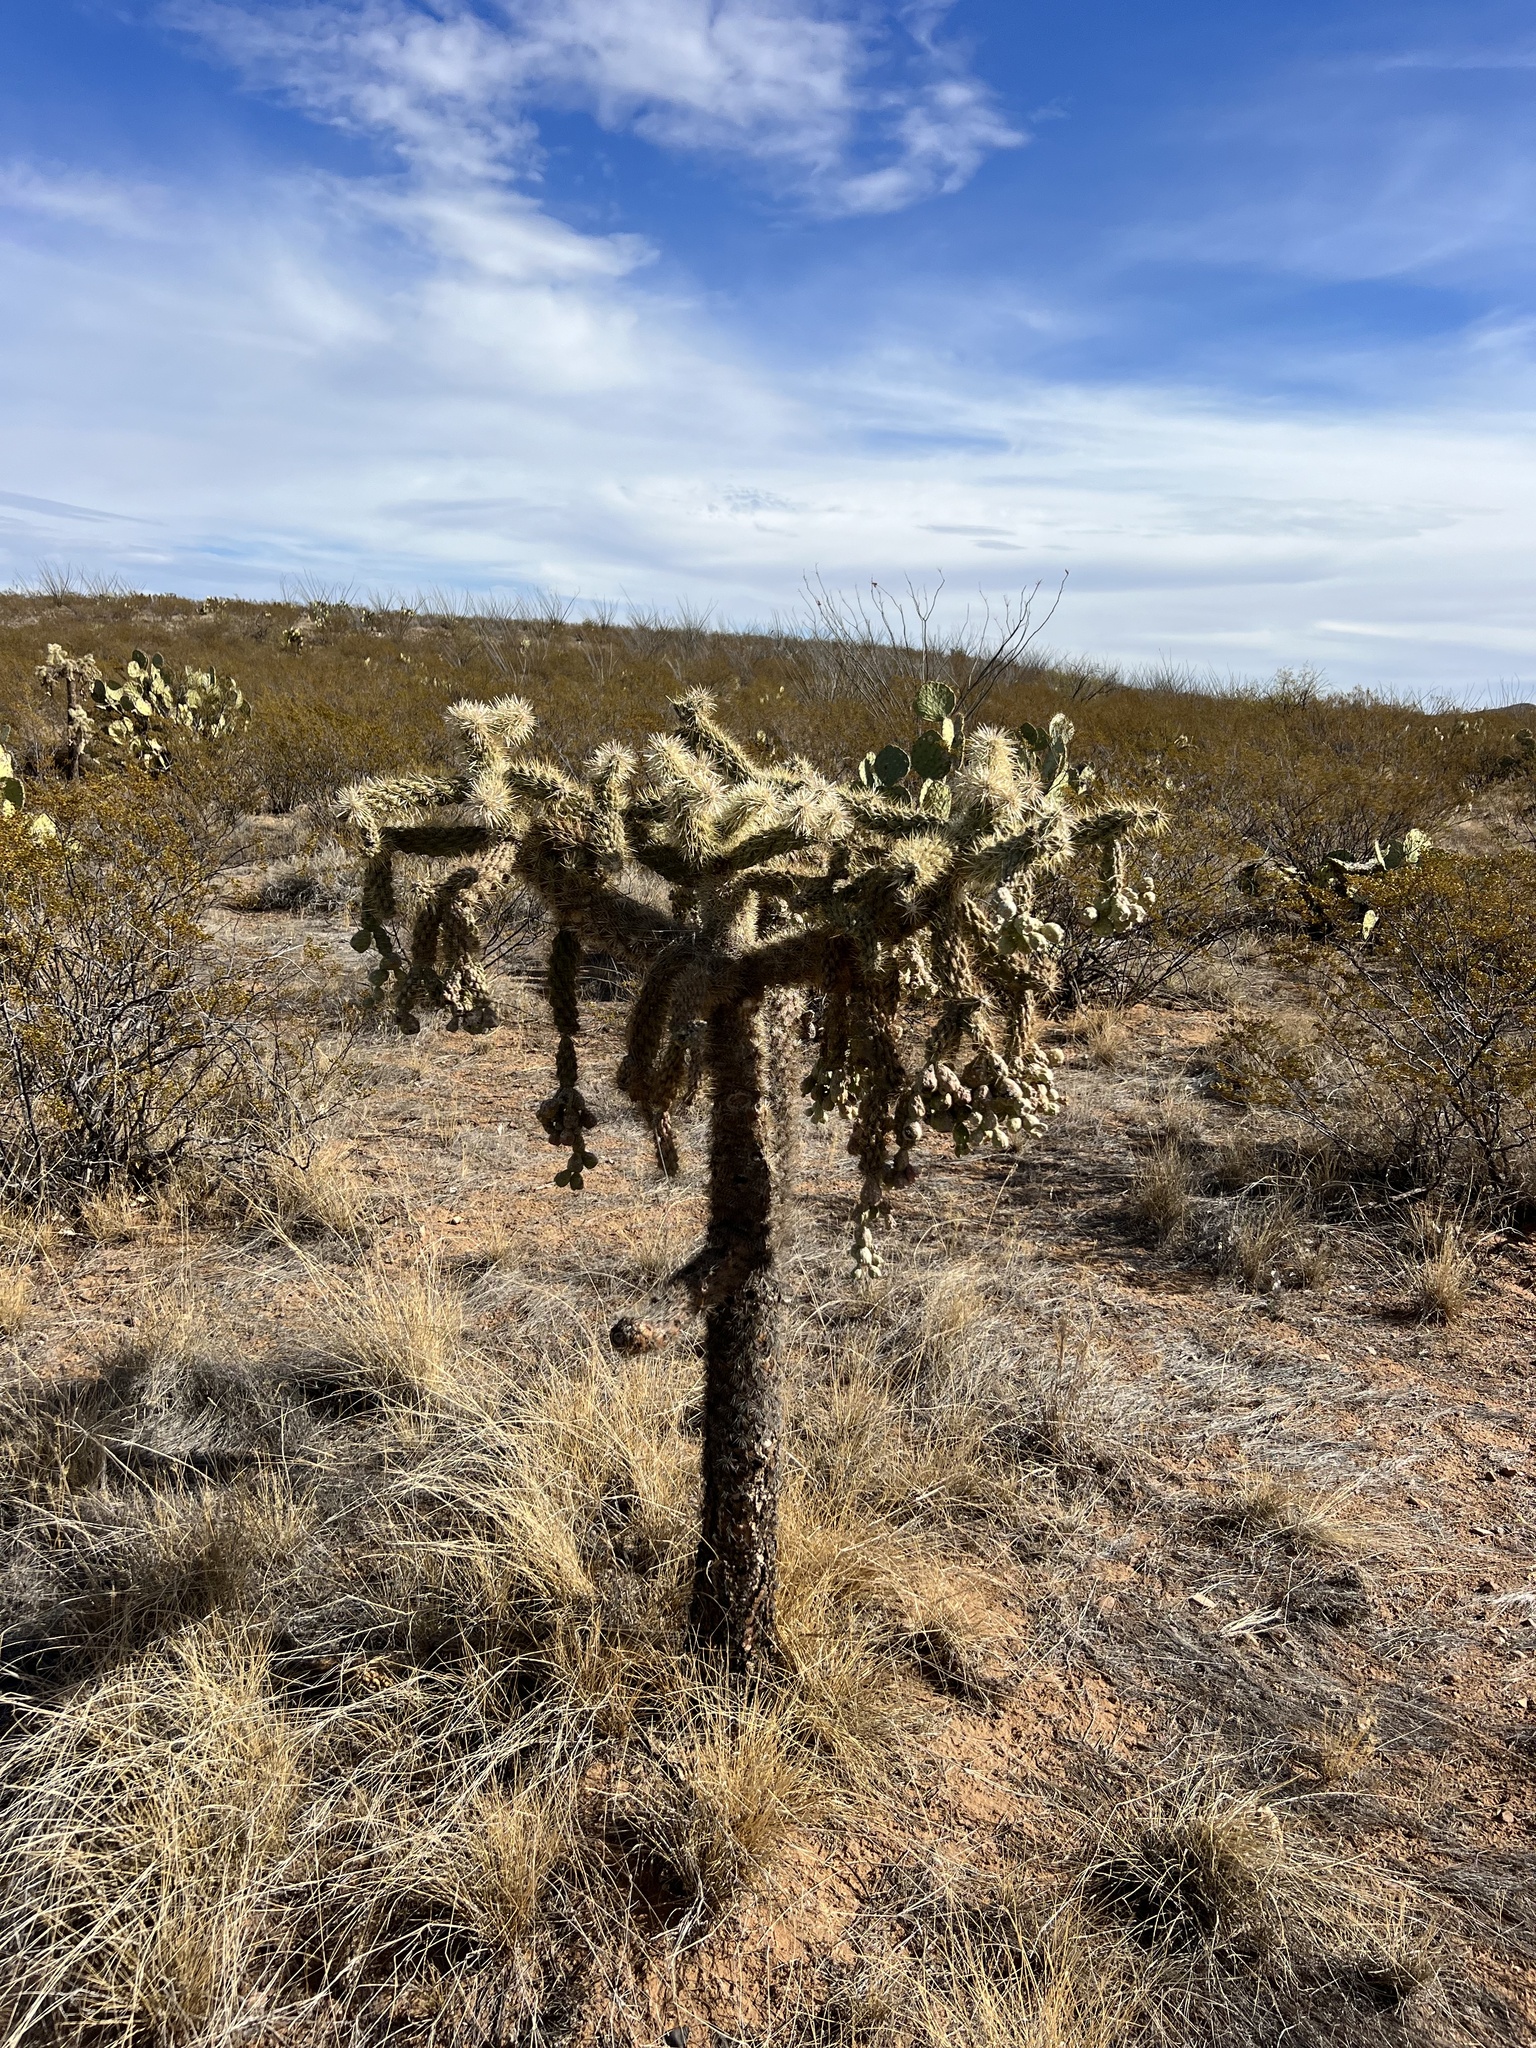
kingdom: Plantae
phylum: Tracheophyta
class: Magnoliopsida
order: Caryophyllales
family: Cactaceae
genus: Cylindropuntia
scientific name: Cylindropuntia fulgida
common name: Jumping cholla
